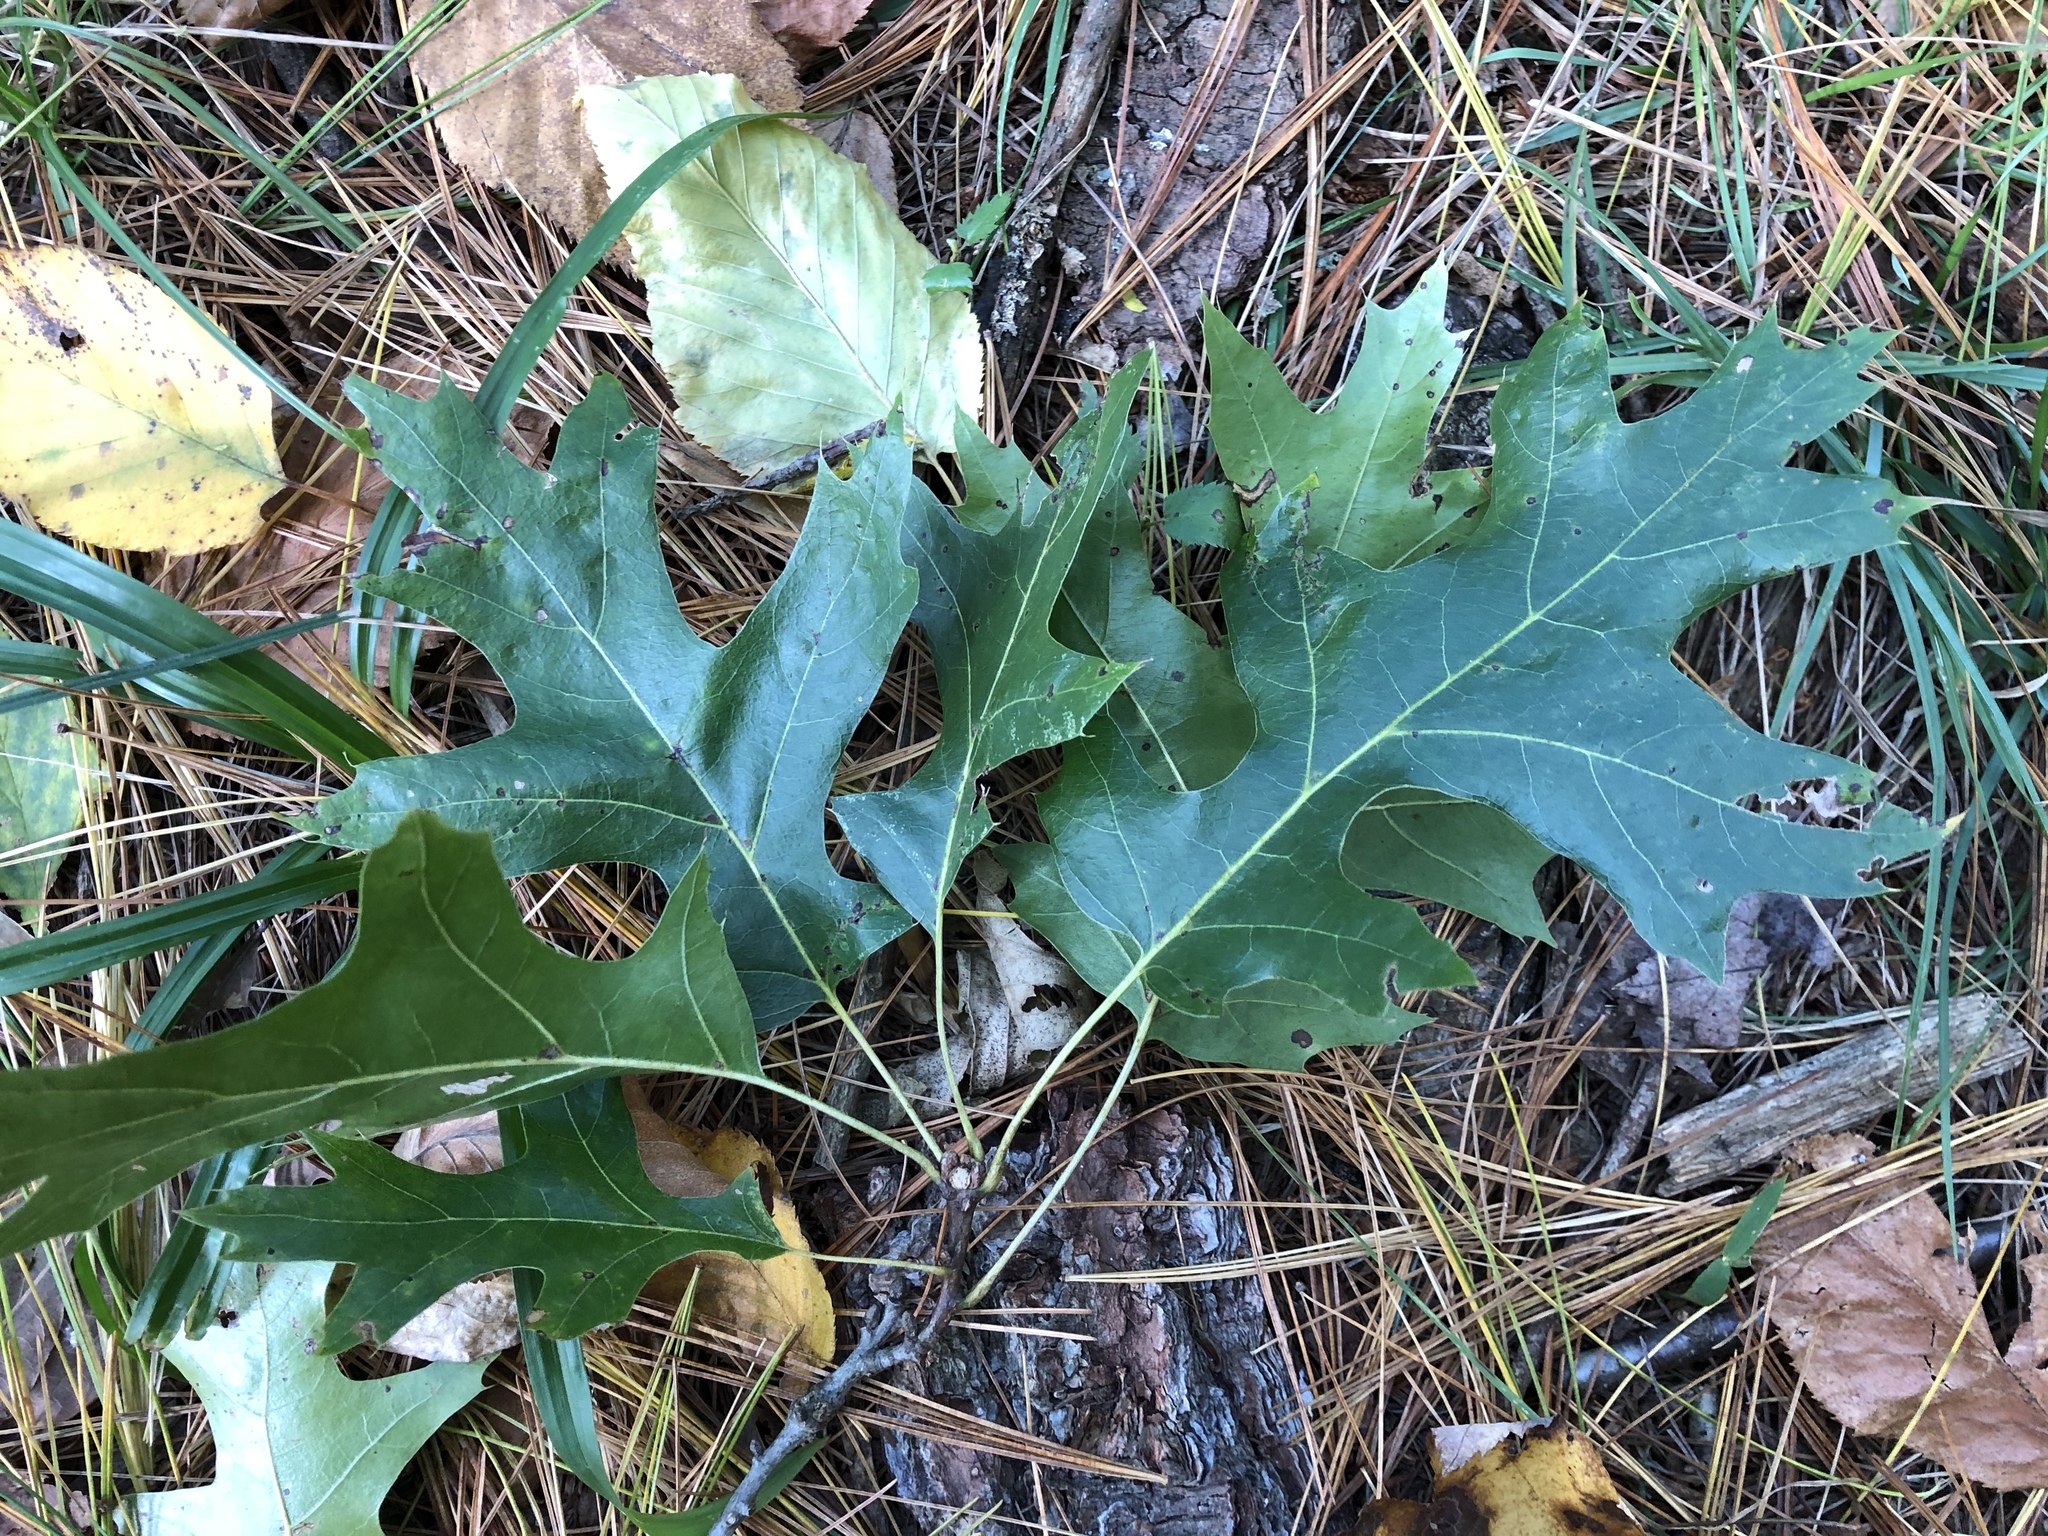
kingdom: Plantae
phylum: Tracheophyta
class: Magnoliopsida
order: Fagales
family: Fagaceae
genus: Quercus
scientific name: Quercus palustris
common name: Pin oak
